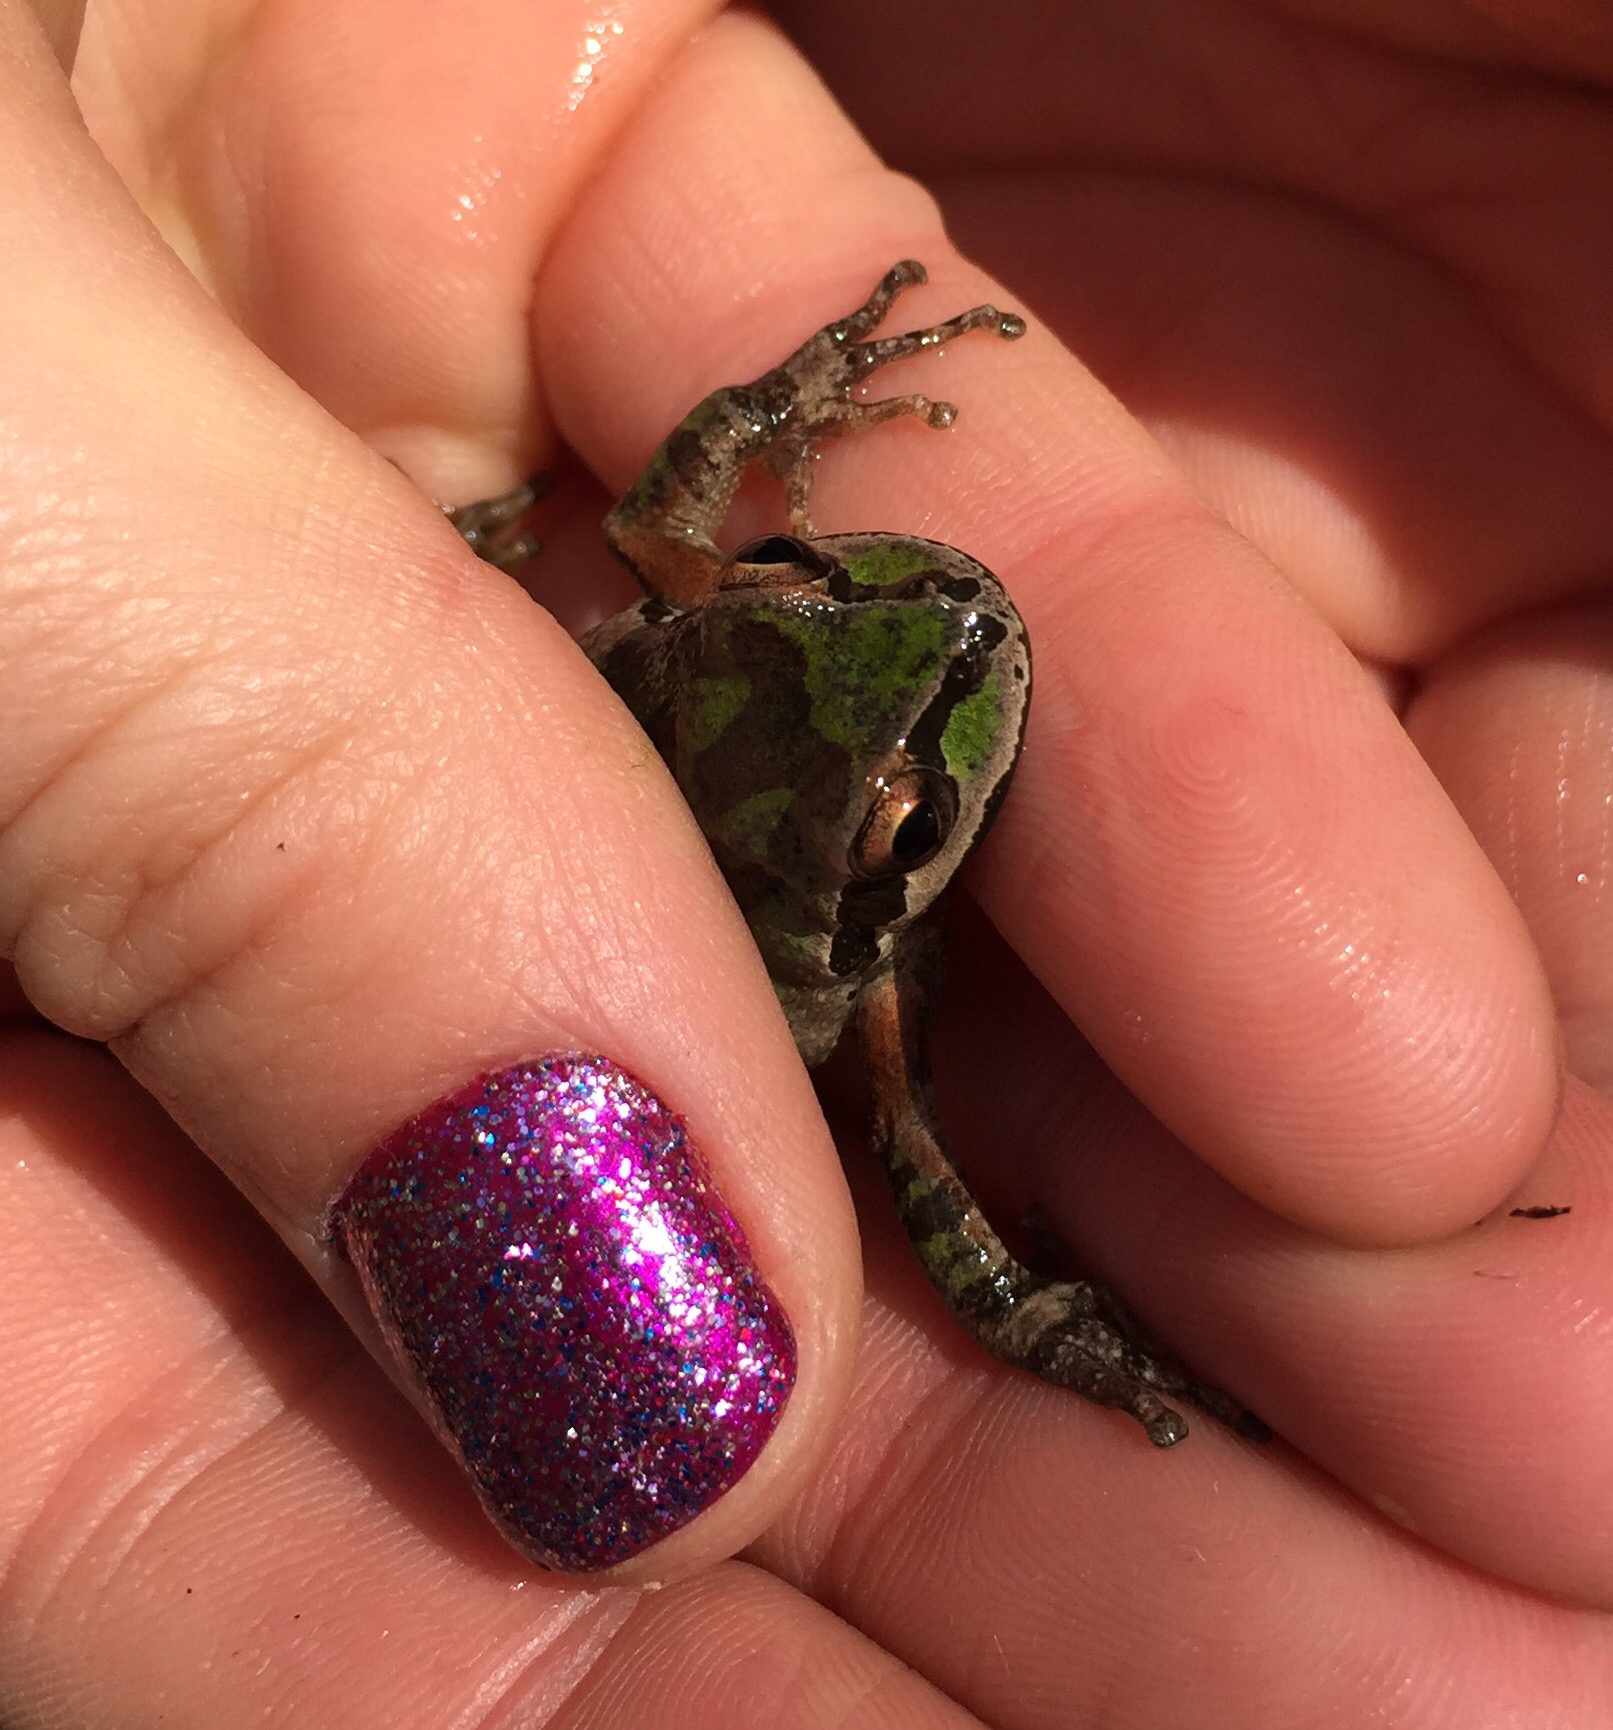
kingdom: Animalia
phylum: Chordata
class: Amphibia
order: Anura
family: Hylidae
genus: Pseudacris
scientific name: Pseudacris regilla
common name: Pacific chorus frog
